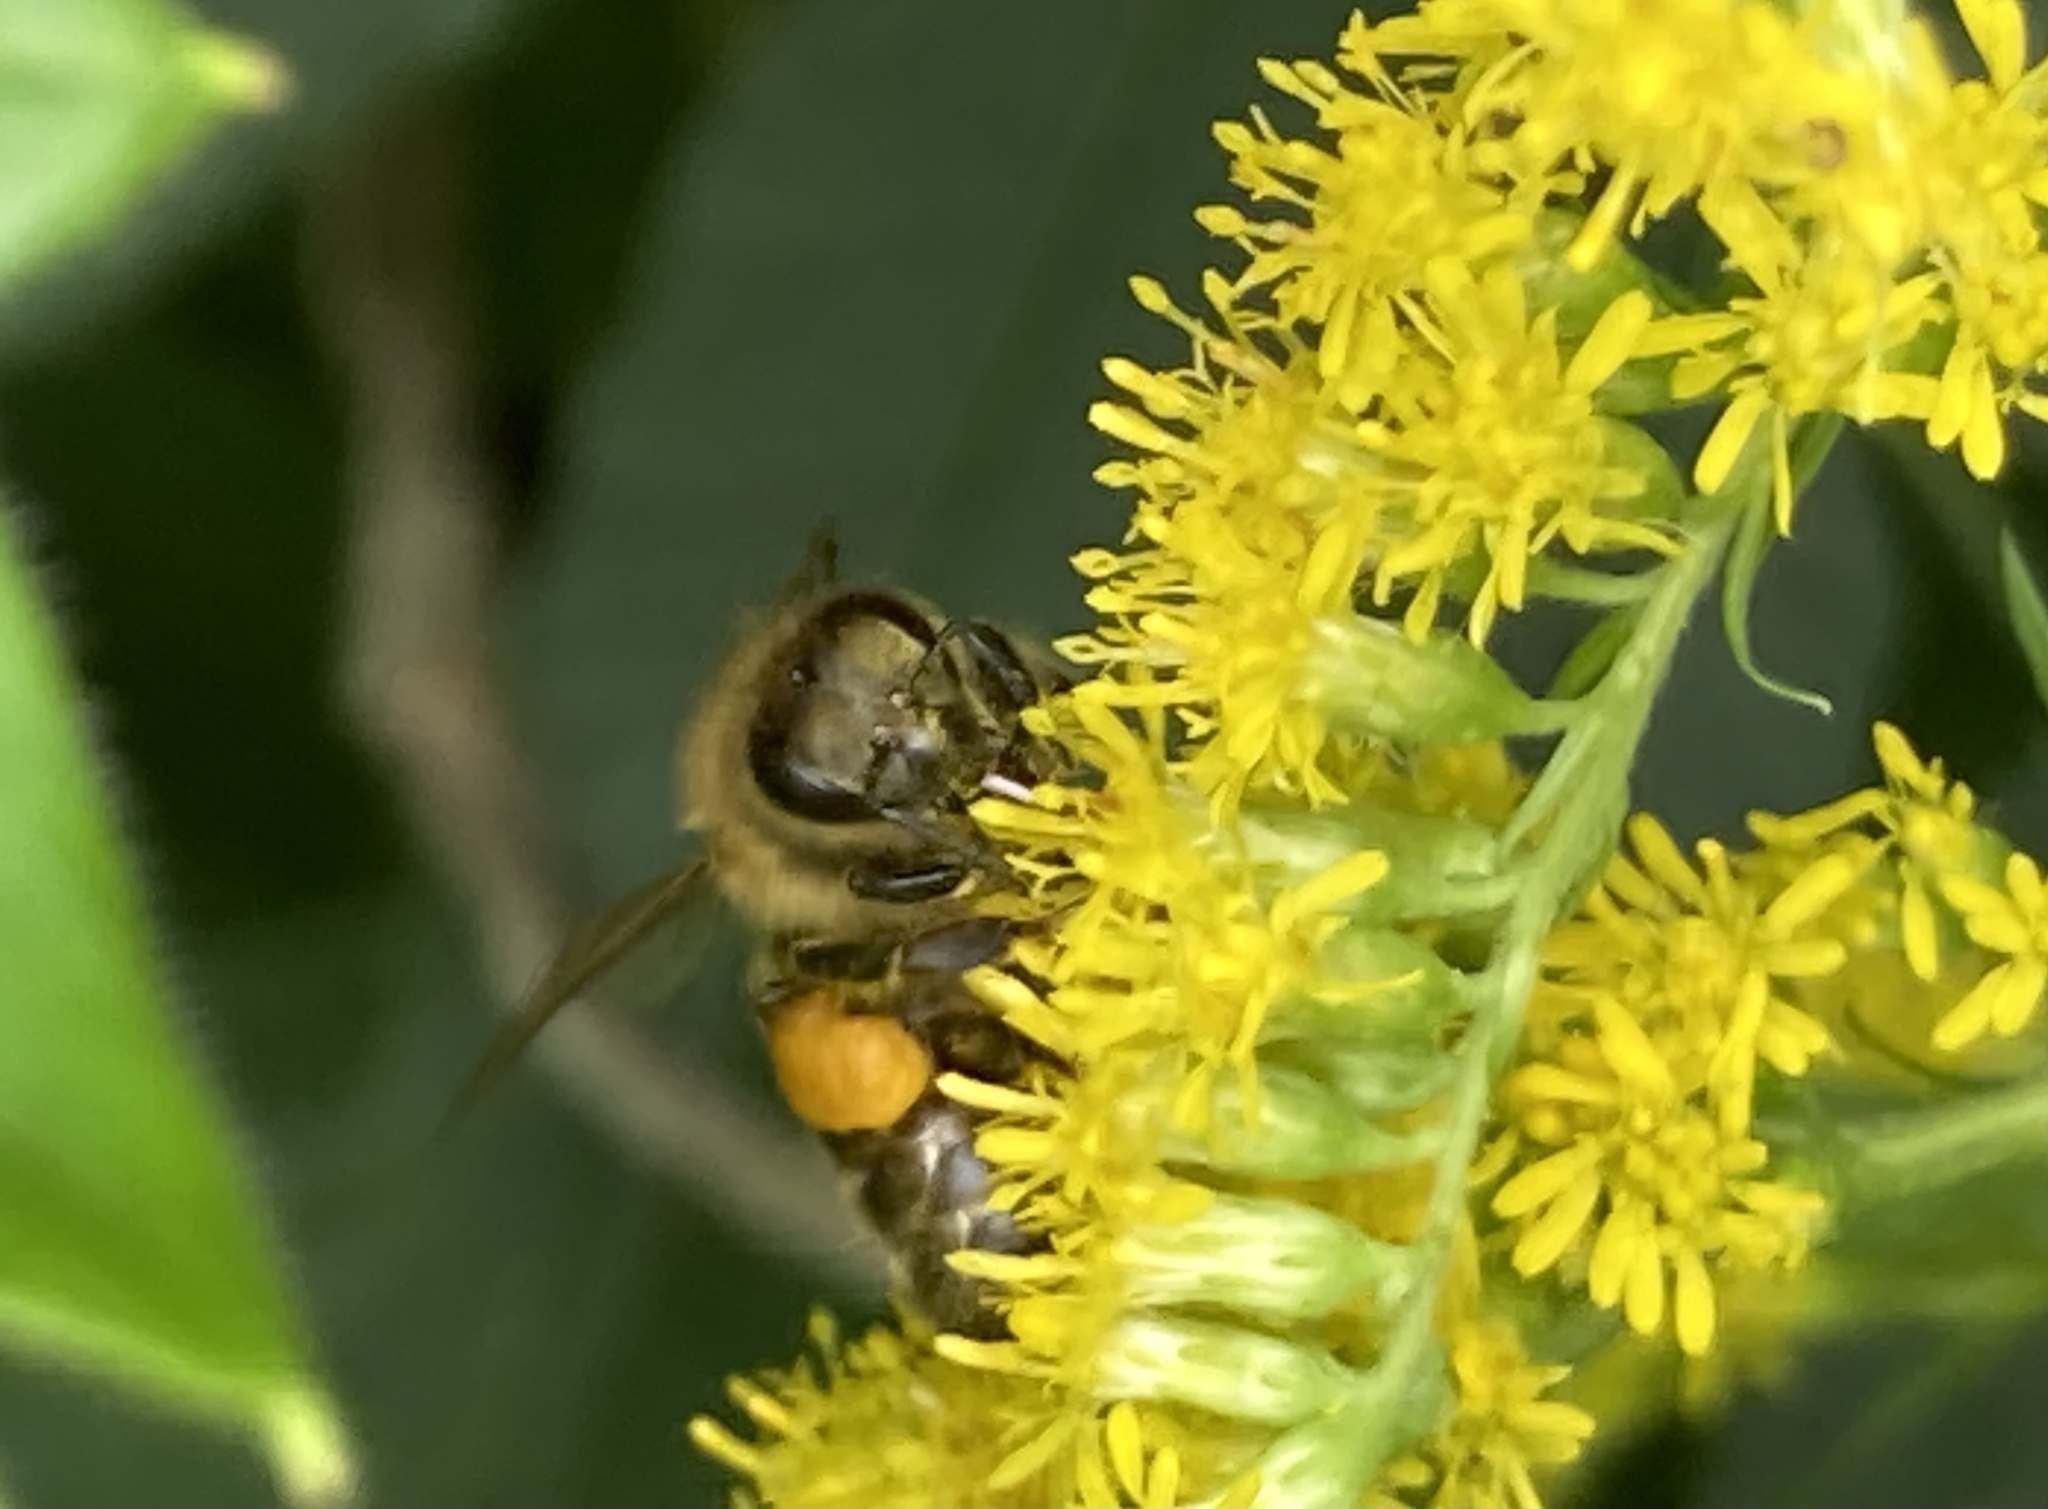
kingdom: Animalia
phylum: Arthropoda
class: Insecta
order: Hymenoptera
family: Apidae
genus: Apis
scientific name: Apis mellifera
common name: Honey bee
